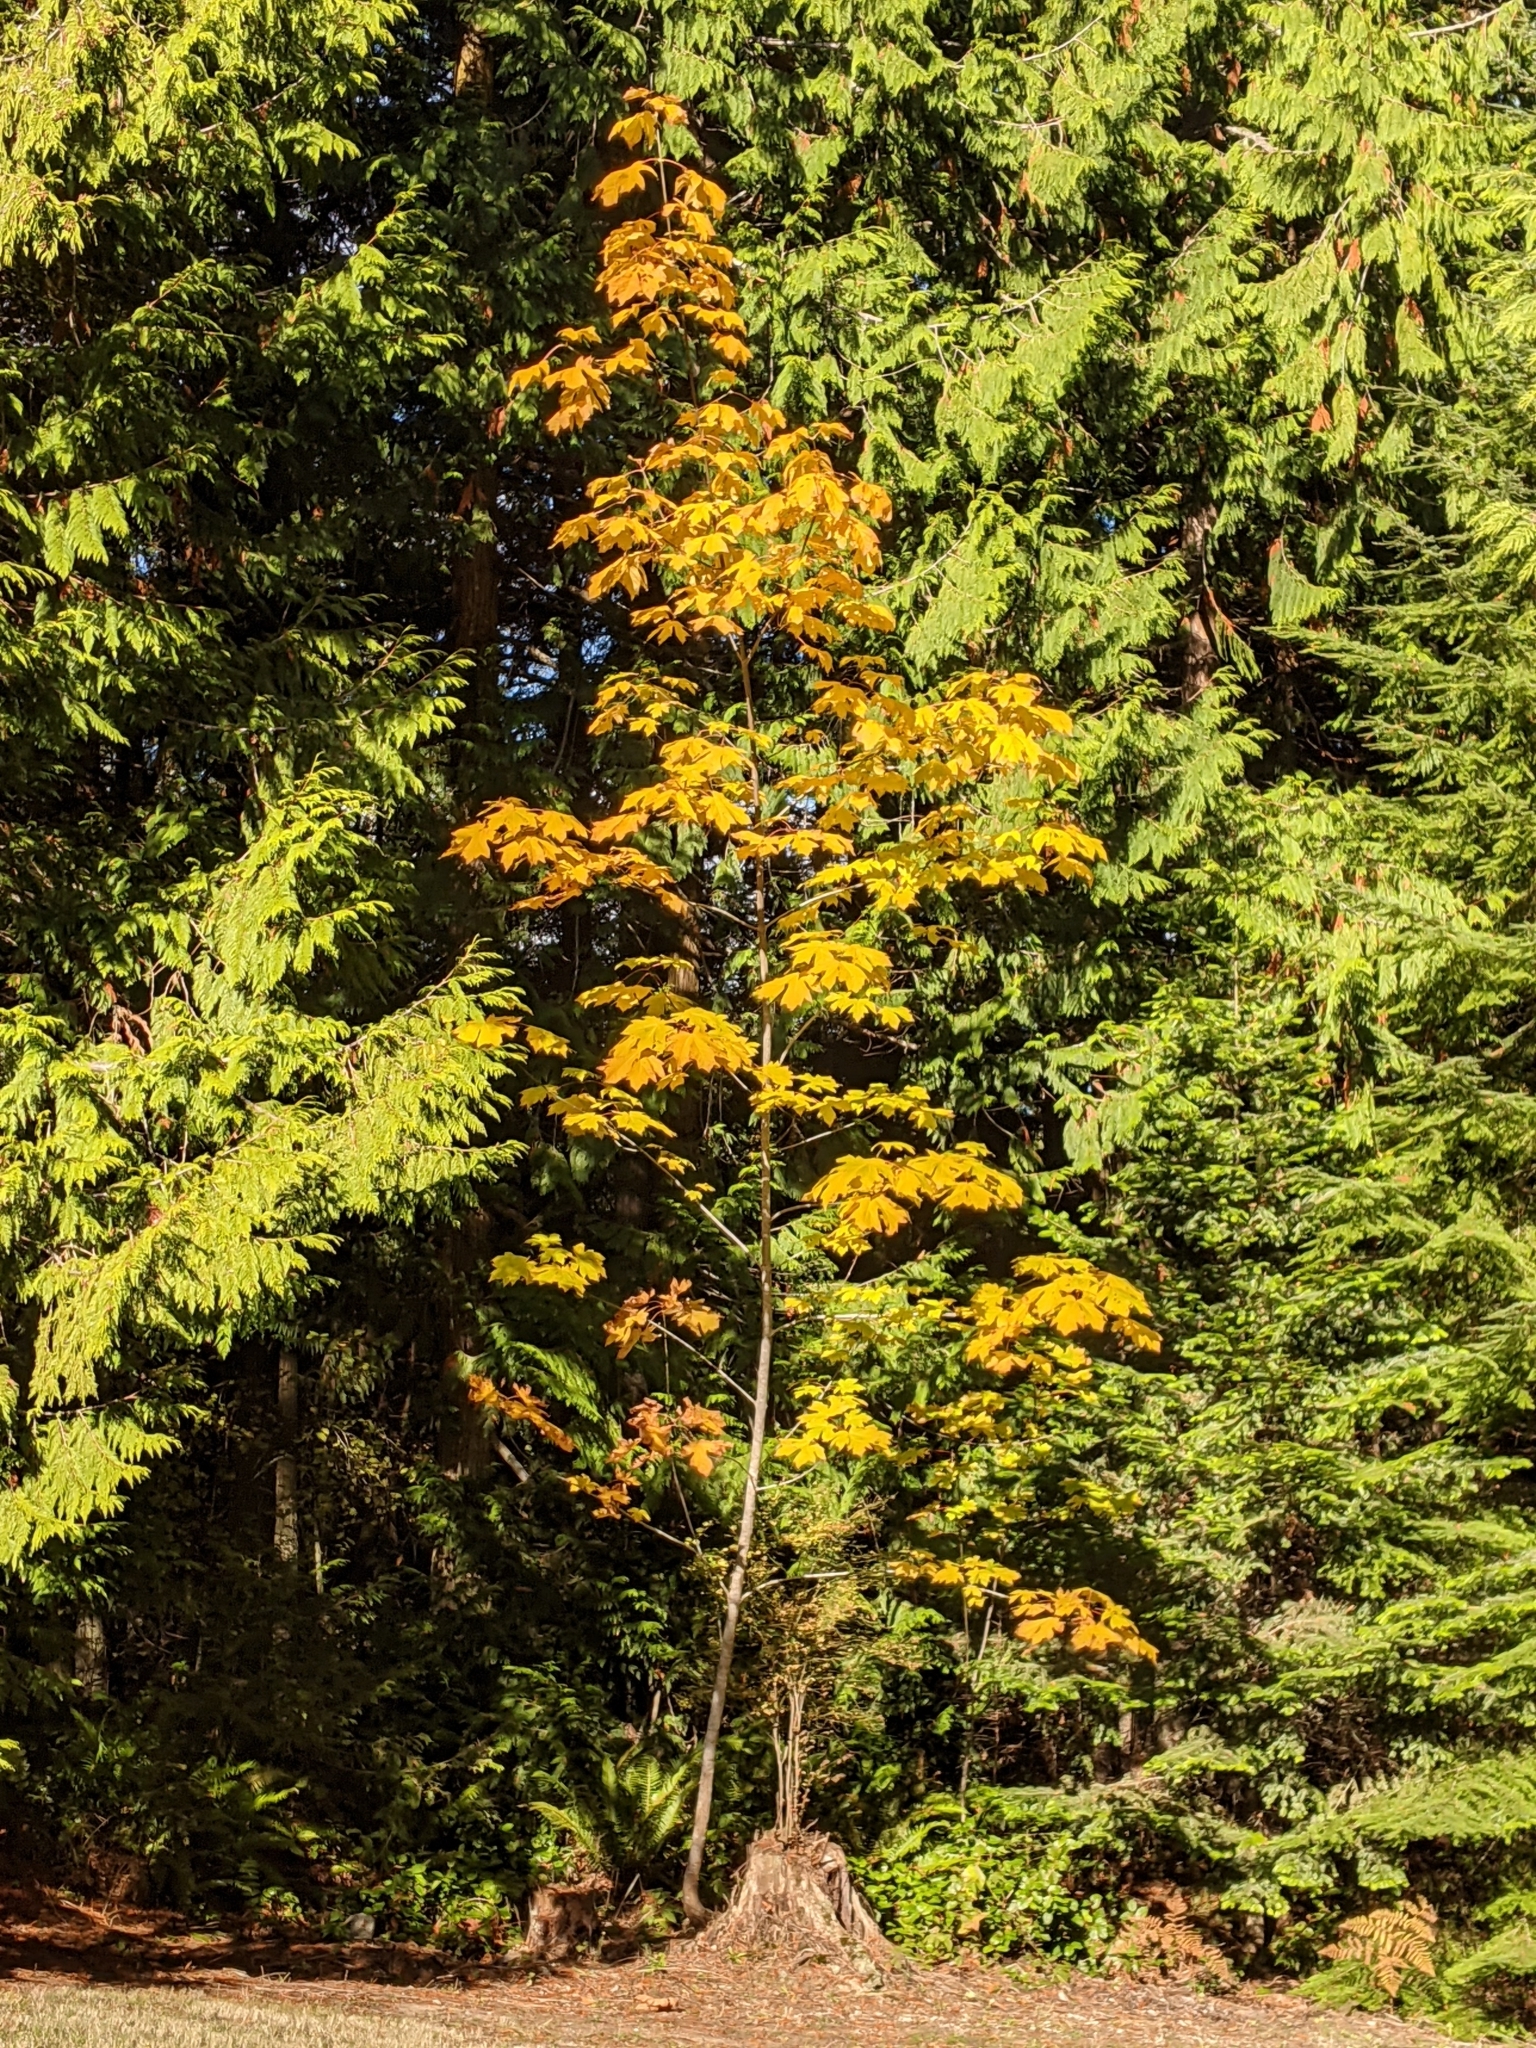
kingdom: Plantae
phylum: Tracheophyta
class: Magnoliopsida
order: Sapindales
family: Sapindaceae
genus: Acer
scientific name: Acer macrophyllum
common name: Oregon maple
